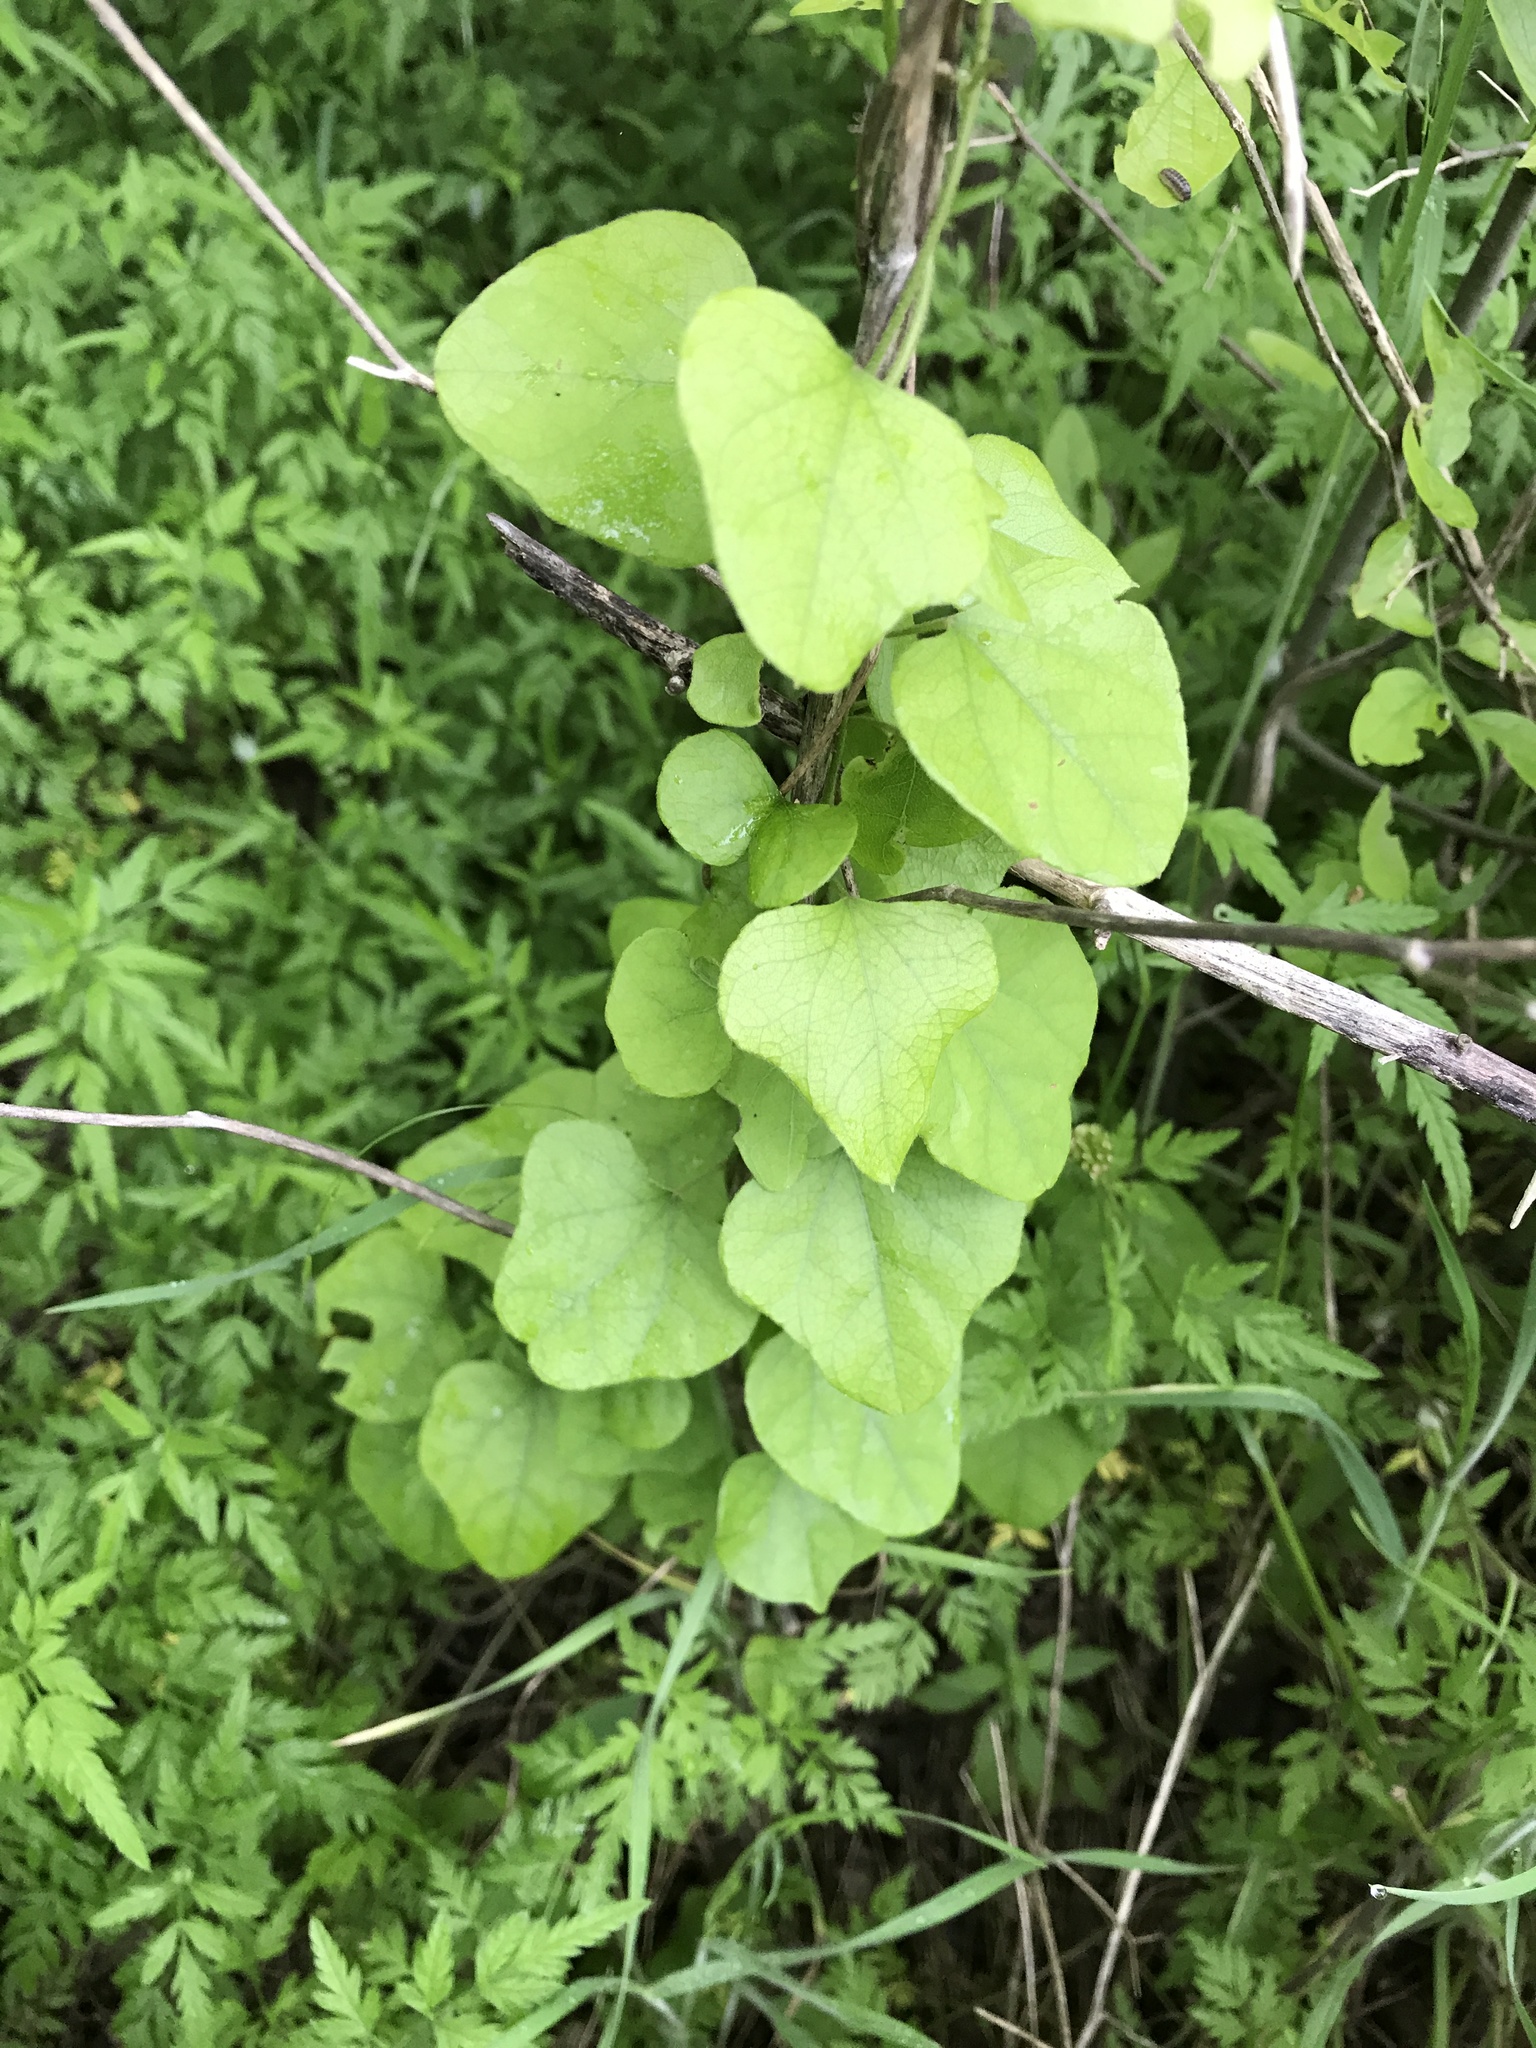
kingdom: Plantae
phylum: Tracheophyta
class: Magnoliopsida
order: Ranunculales
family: Menispermaceae
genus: Cocculus
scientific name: Cocculus carolinus
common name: Carolina moonseed
